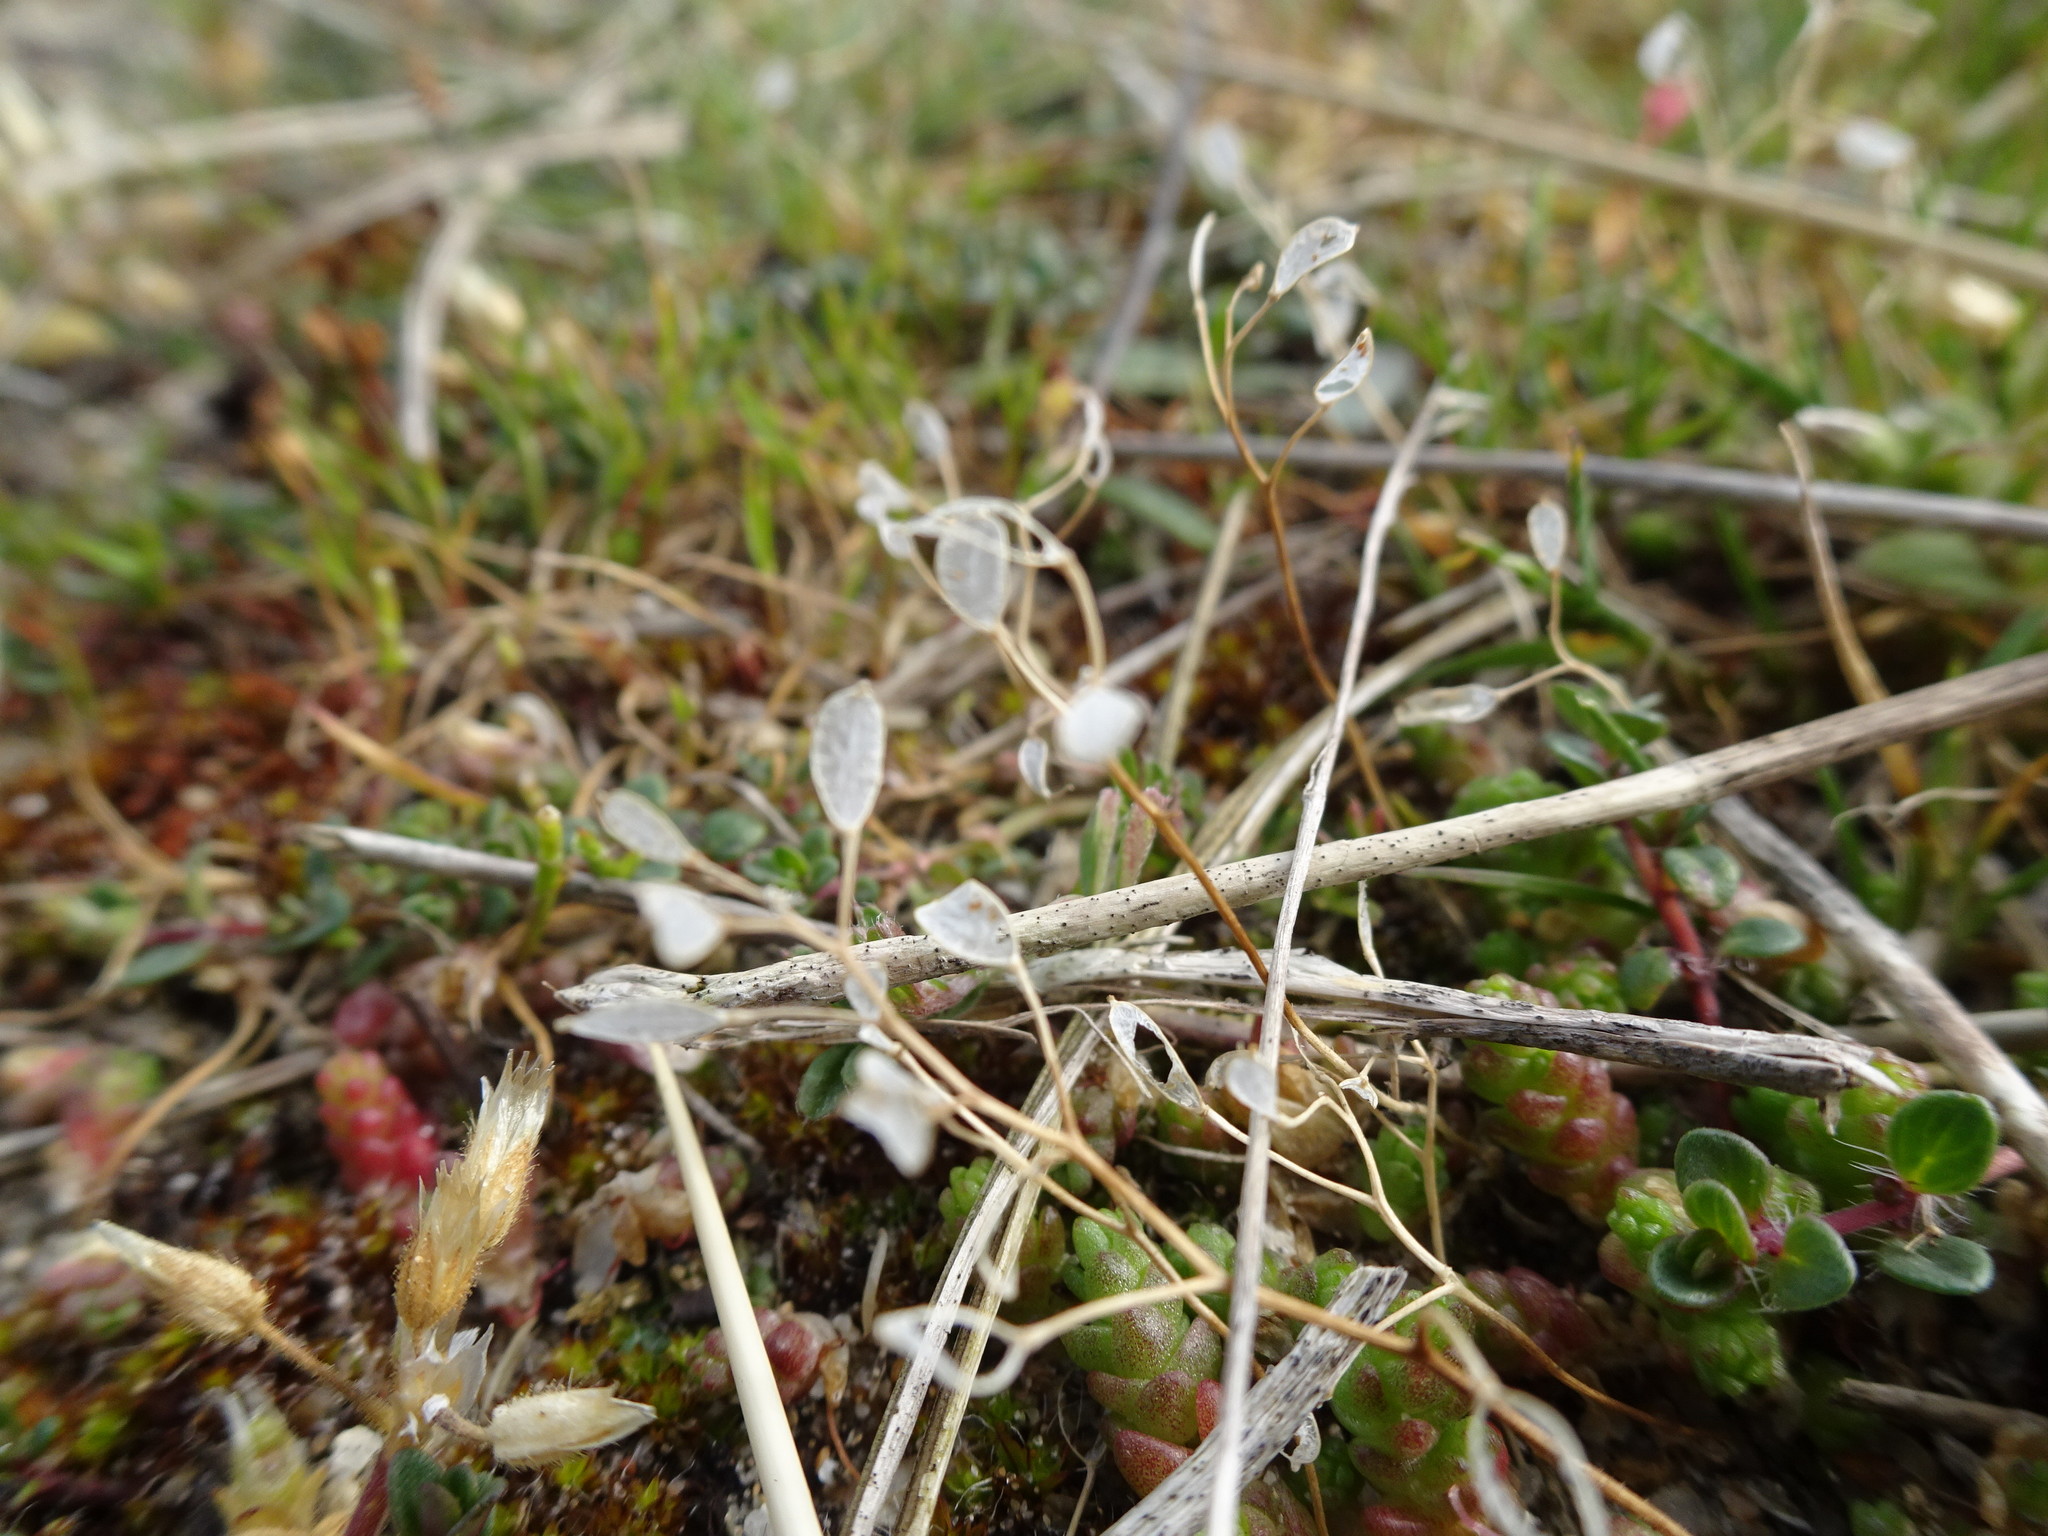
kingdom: Plantae
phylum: Tracheophyta
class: Magnoliopsida
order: Brassicales
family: Brassicaceae
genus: Draba
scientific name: Draba verna
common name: Spring draba
